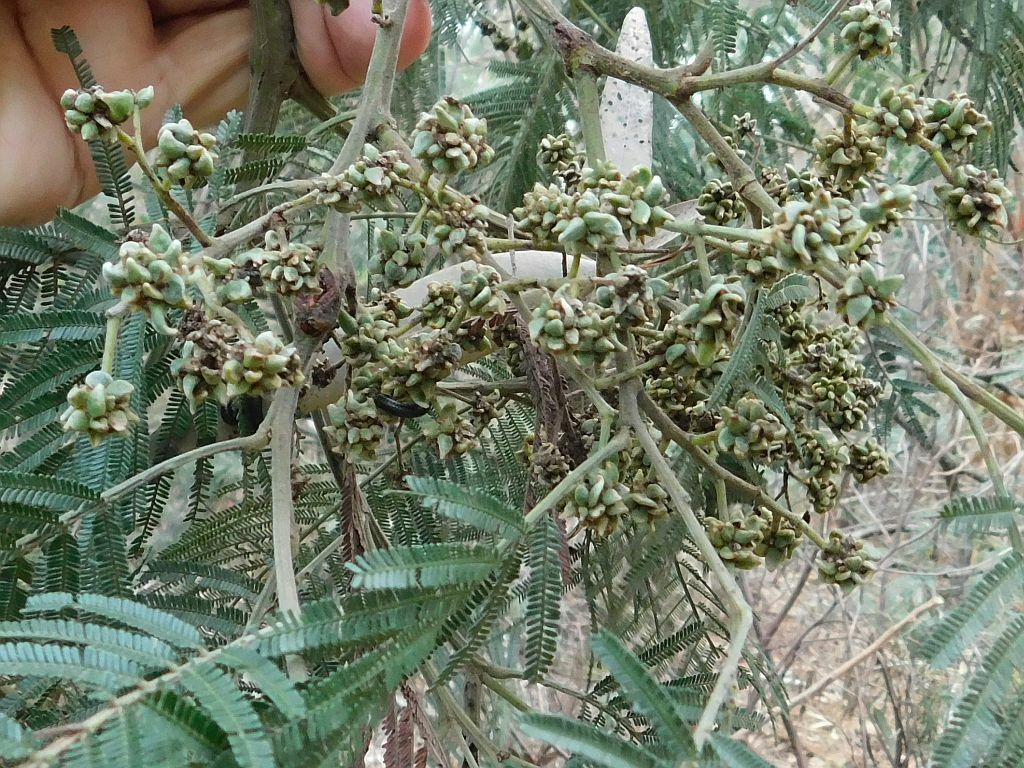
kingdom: Plantae
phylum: Tracheophyta
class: Magnoliopsida
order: Fabales
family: Fabaceae
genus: Acacia
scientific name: Acacia mearnsii
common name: Black wattle
